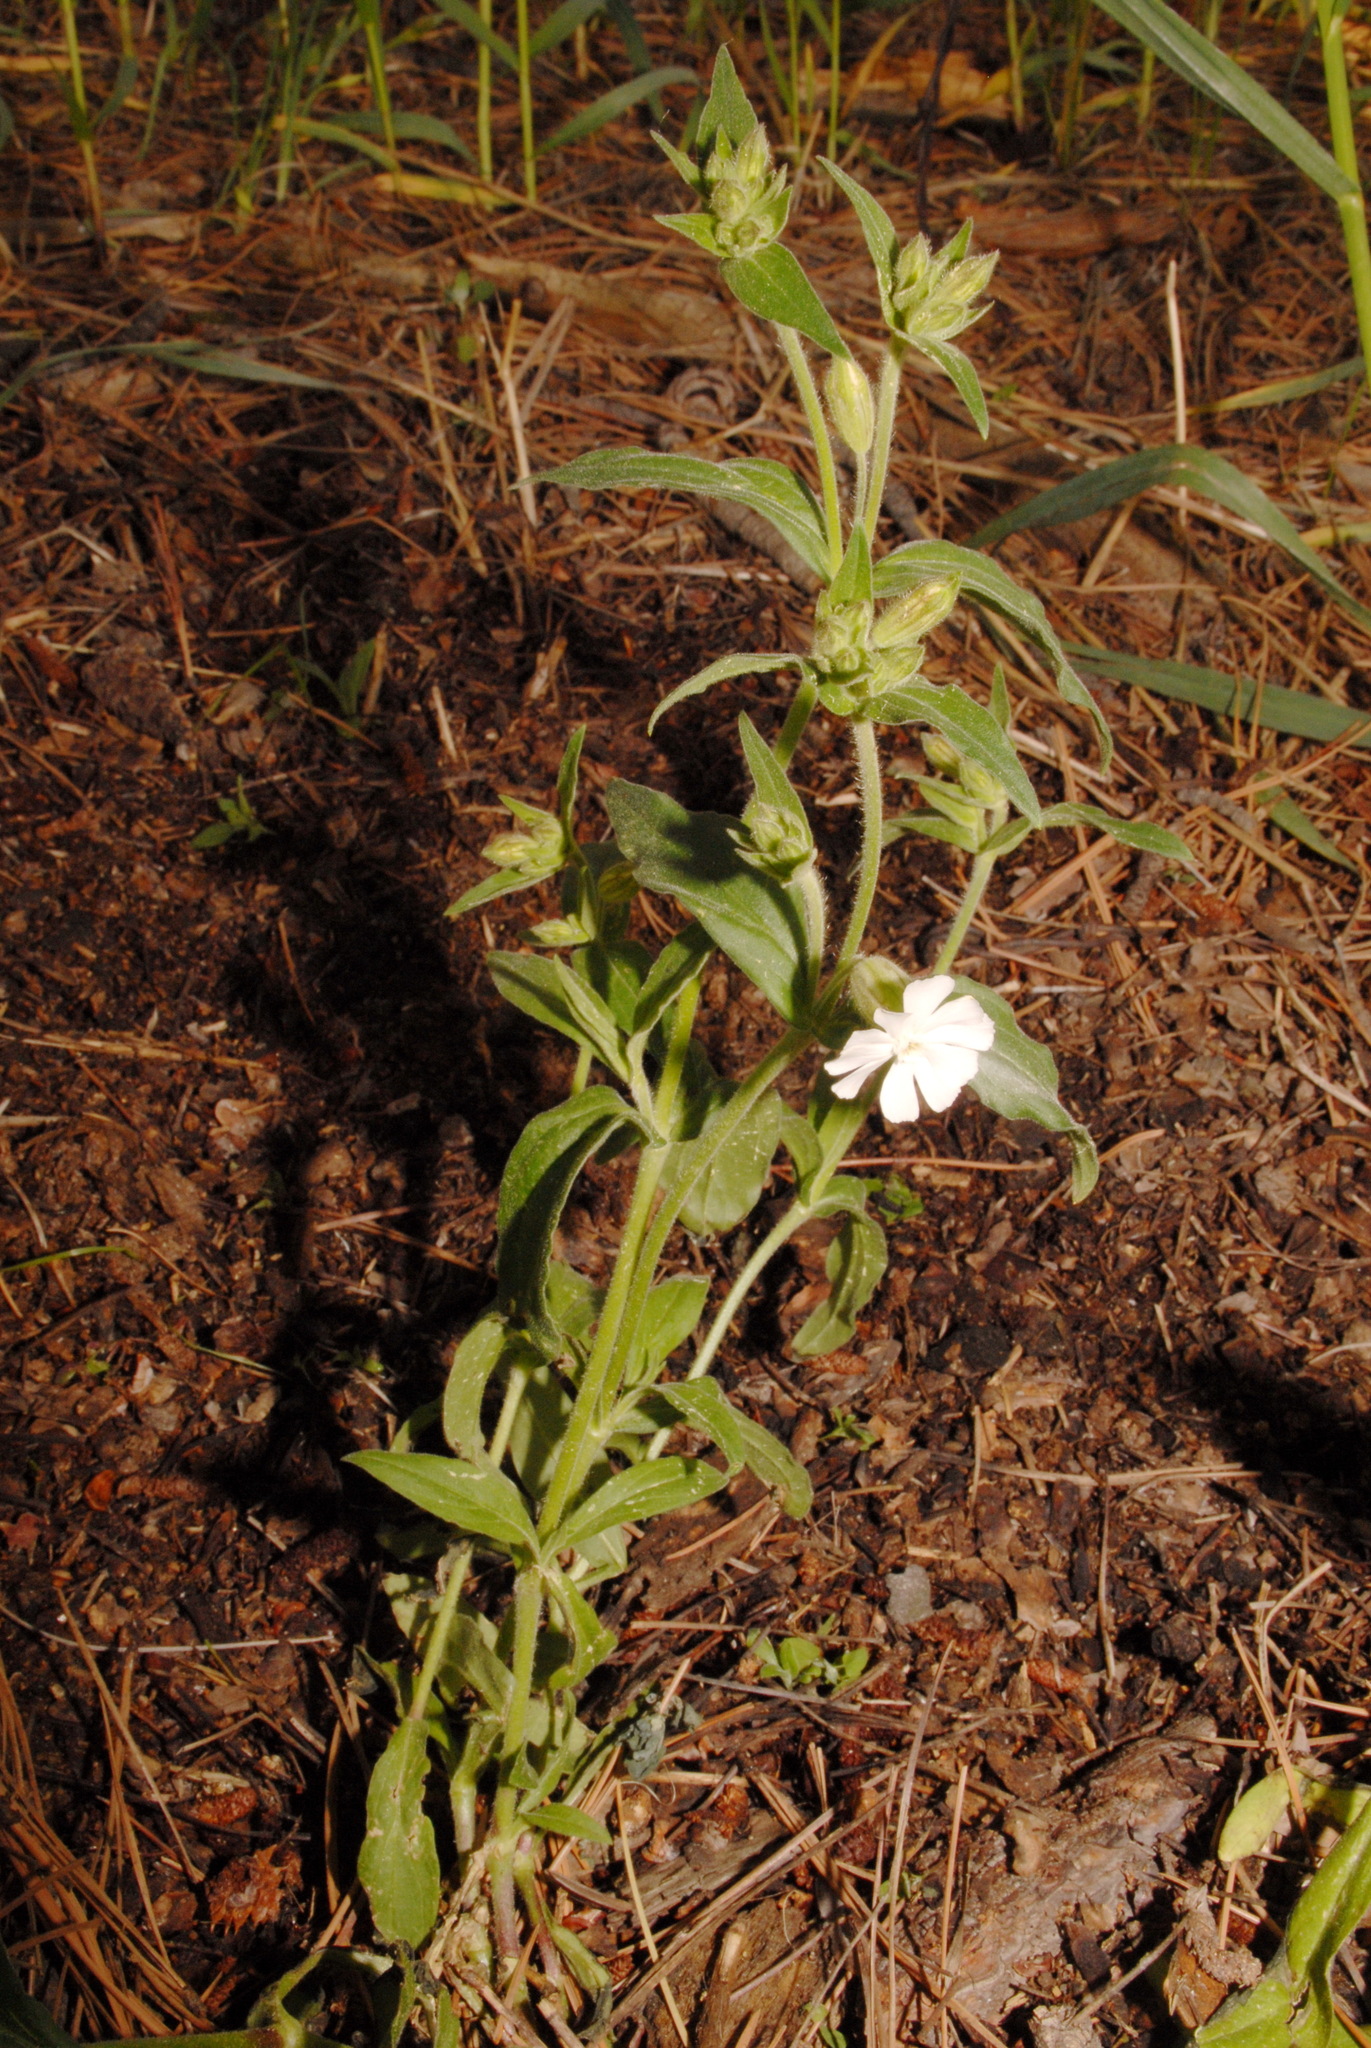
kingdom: Plantae
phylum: Tracheophyta
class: Magnoliopsida
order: Caryophyllales
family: Caryophyllaceae
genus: Silene
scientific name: Silene latifolia
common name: White campion
